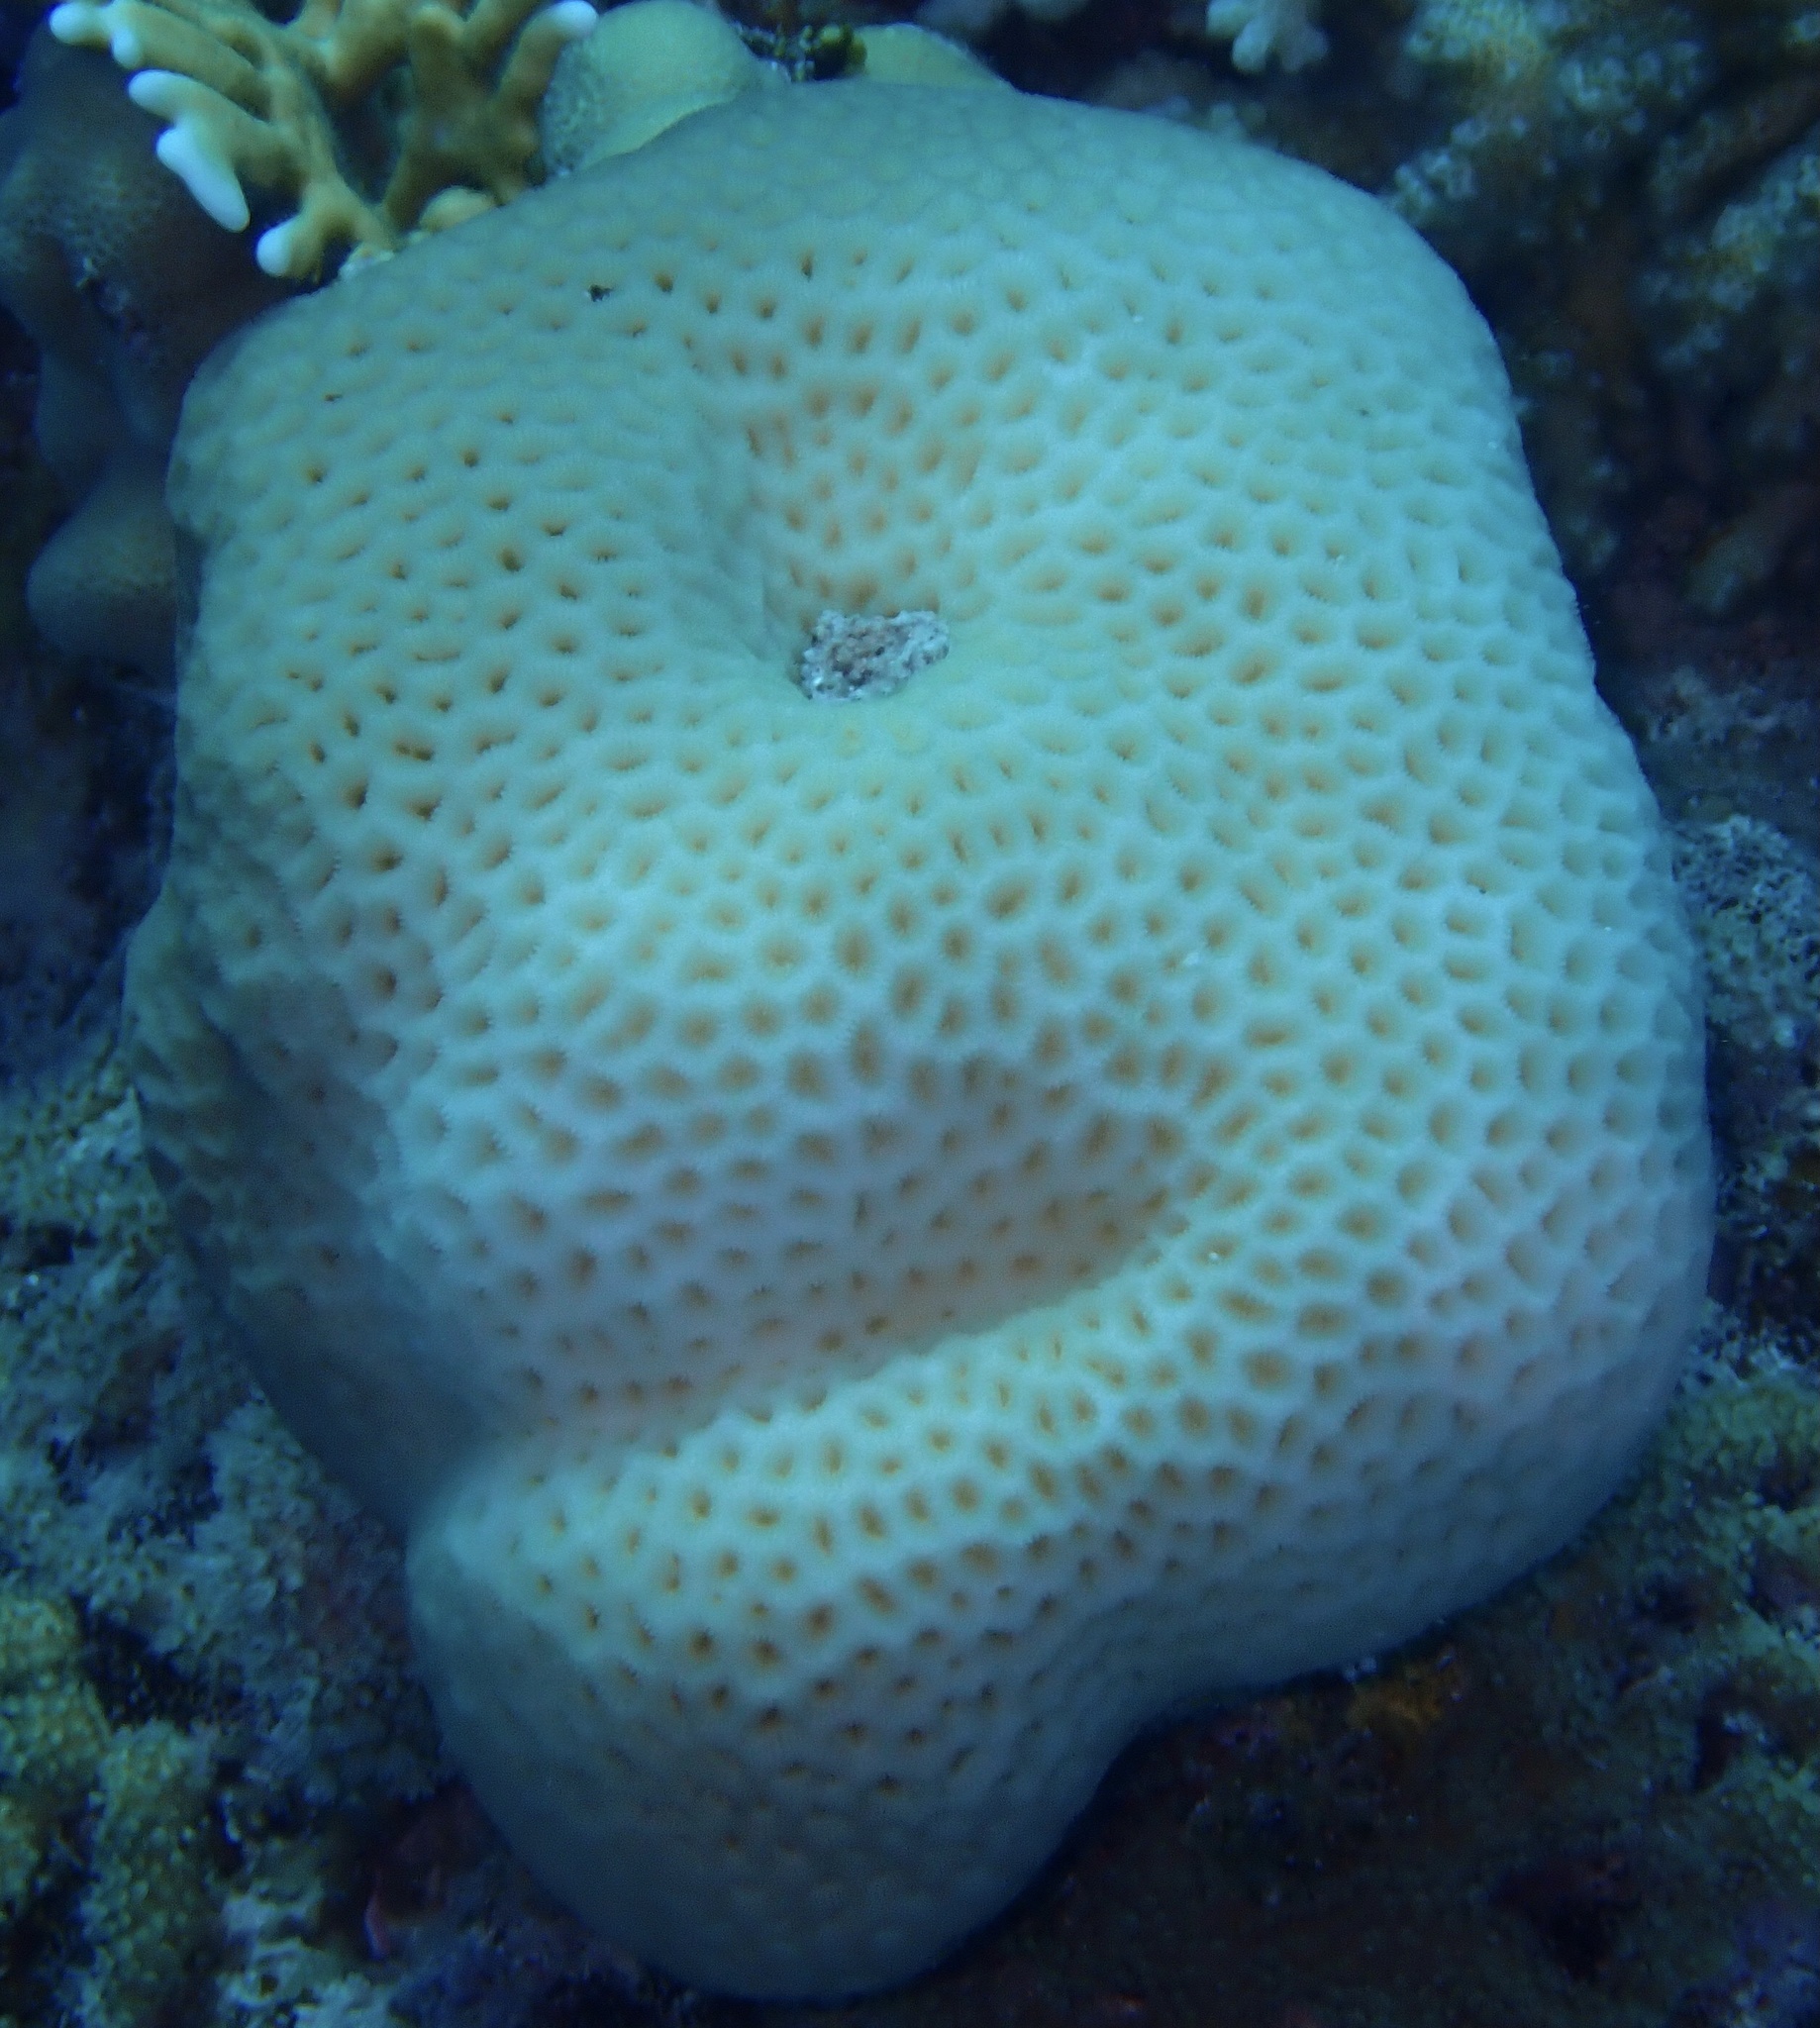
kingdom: Animalia
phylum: Cnidaria
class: Anthozoa
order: Scleractinia
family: Merulinidae
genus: Goniastrea
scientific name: Goniastrea pectinata
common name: Lesser star coral
